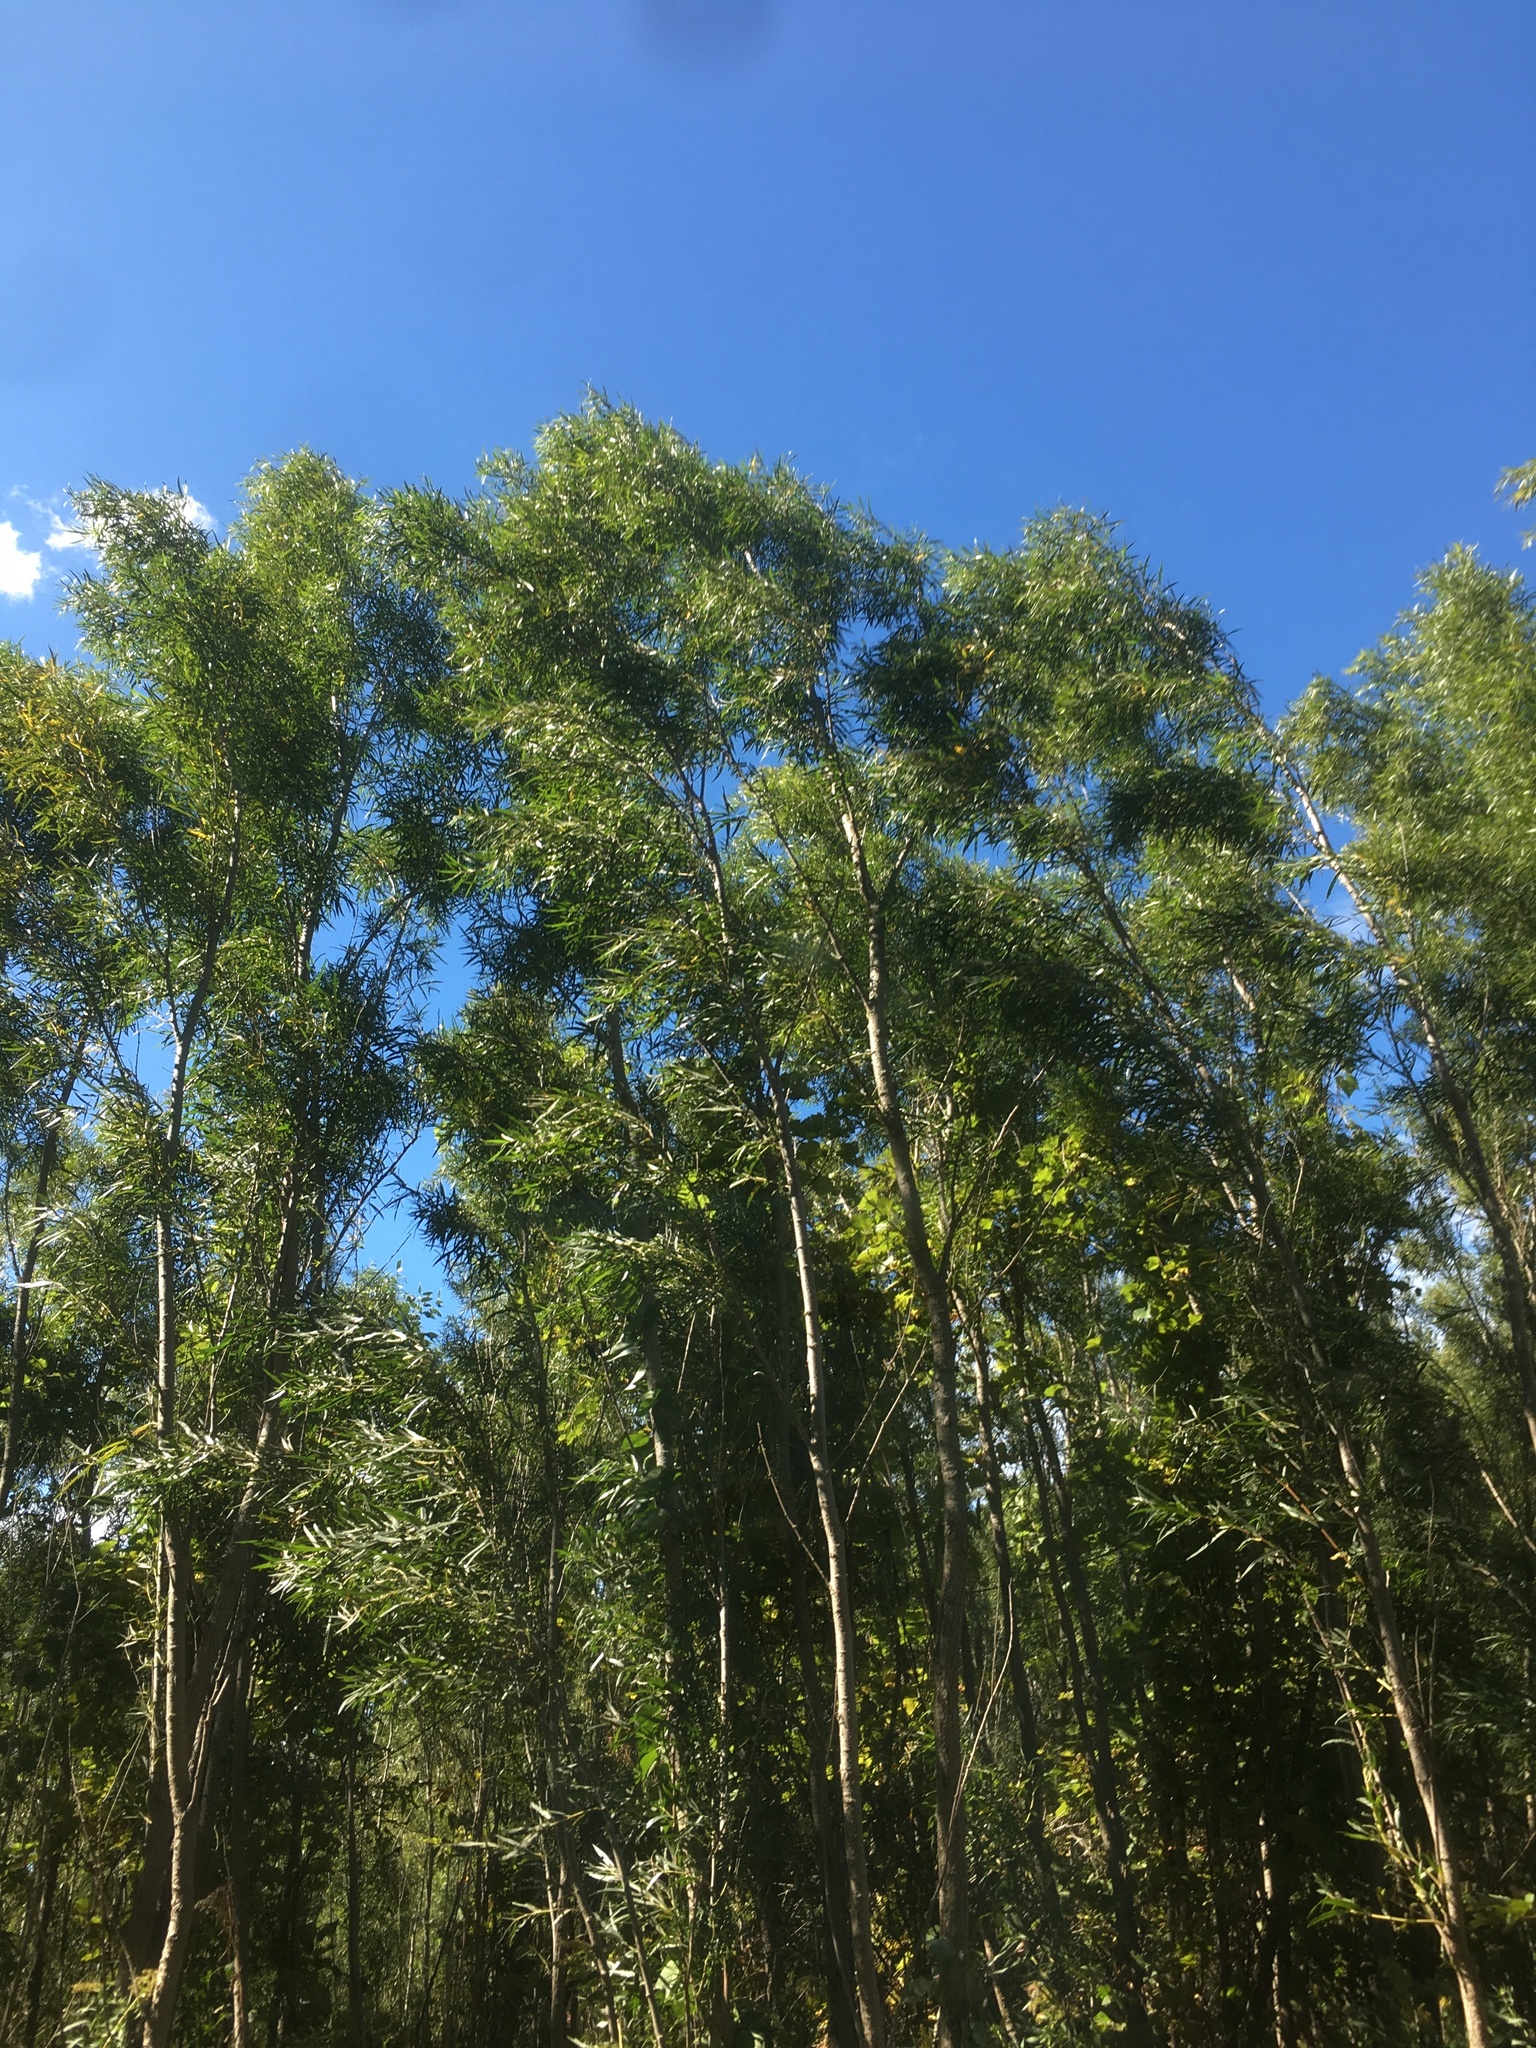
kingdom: Plantae
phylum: Tracheophyta
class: Magnoliopsida
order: Malpighiales
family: Salicaceae
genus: Salix
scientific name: Salix interior
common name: Sandbar willow
